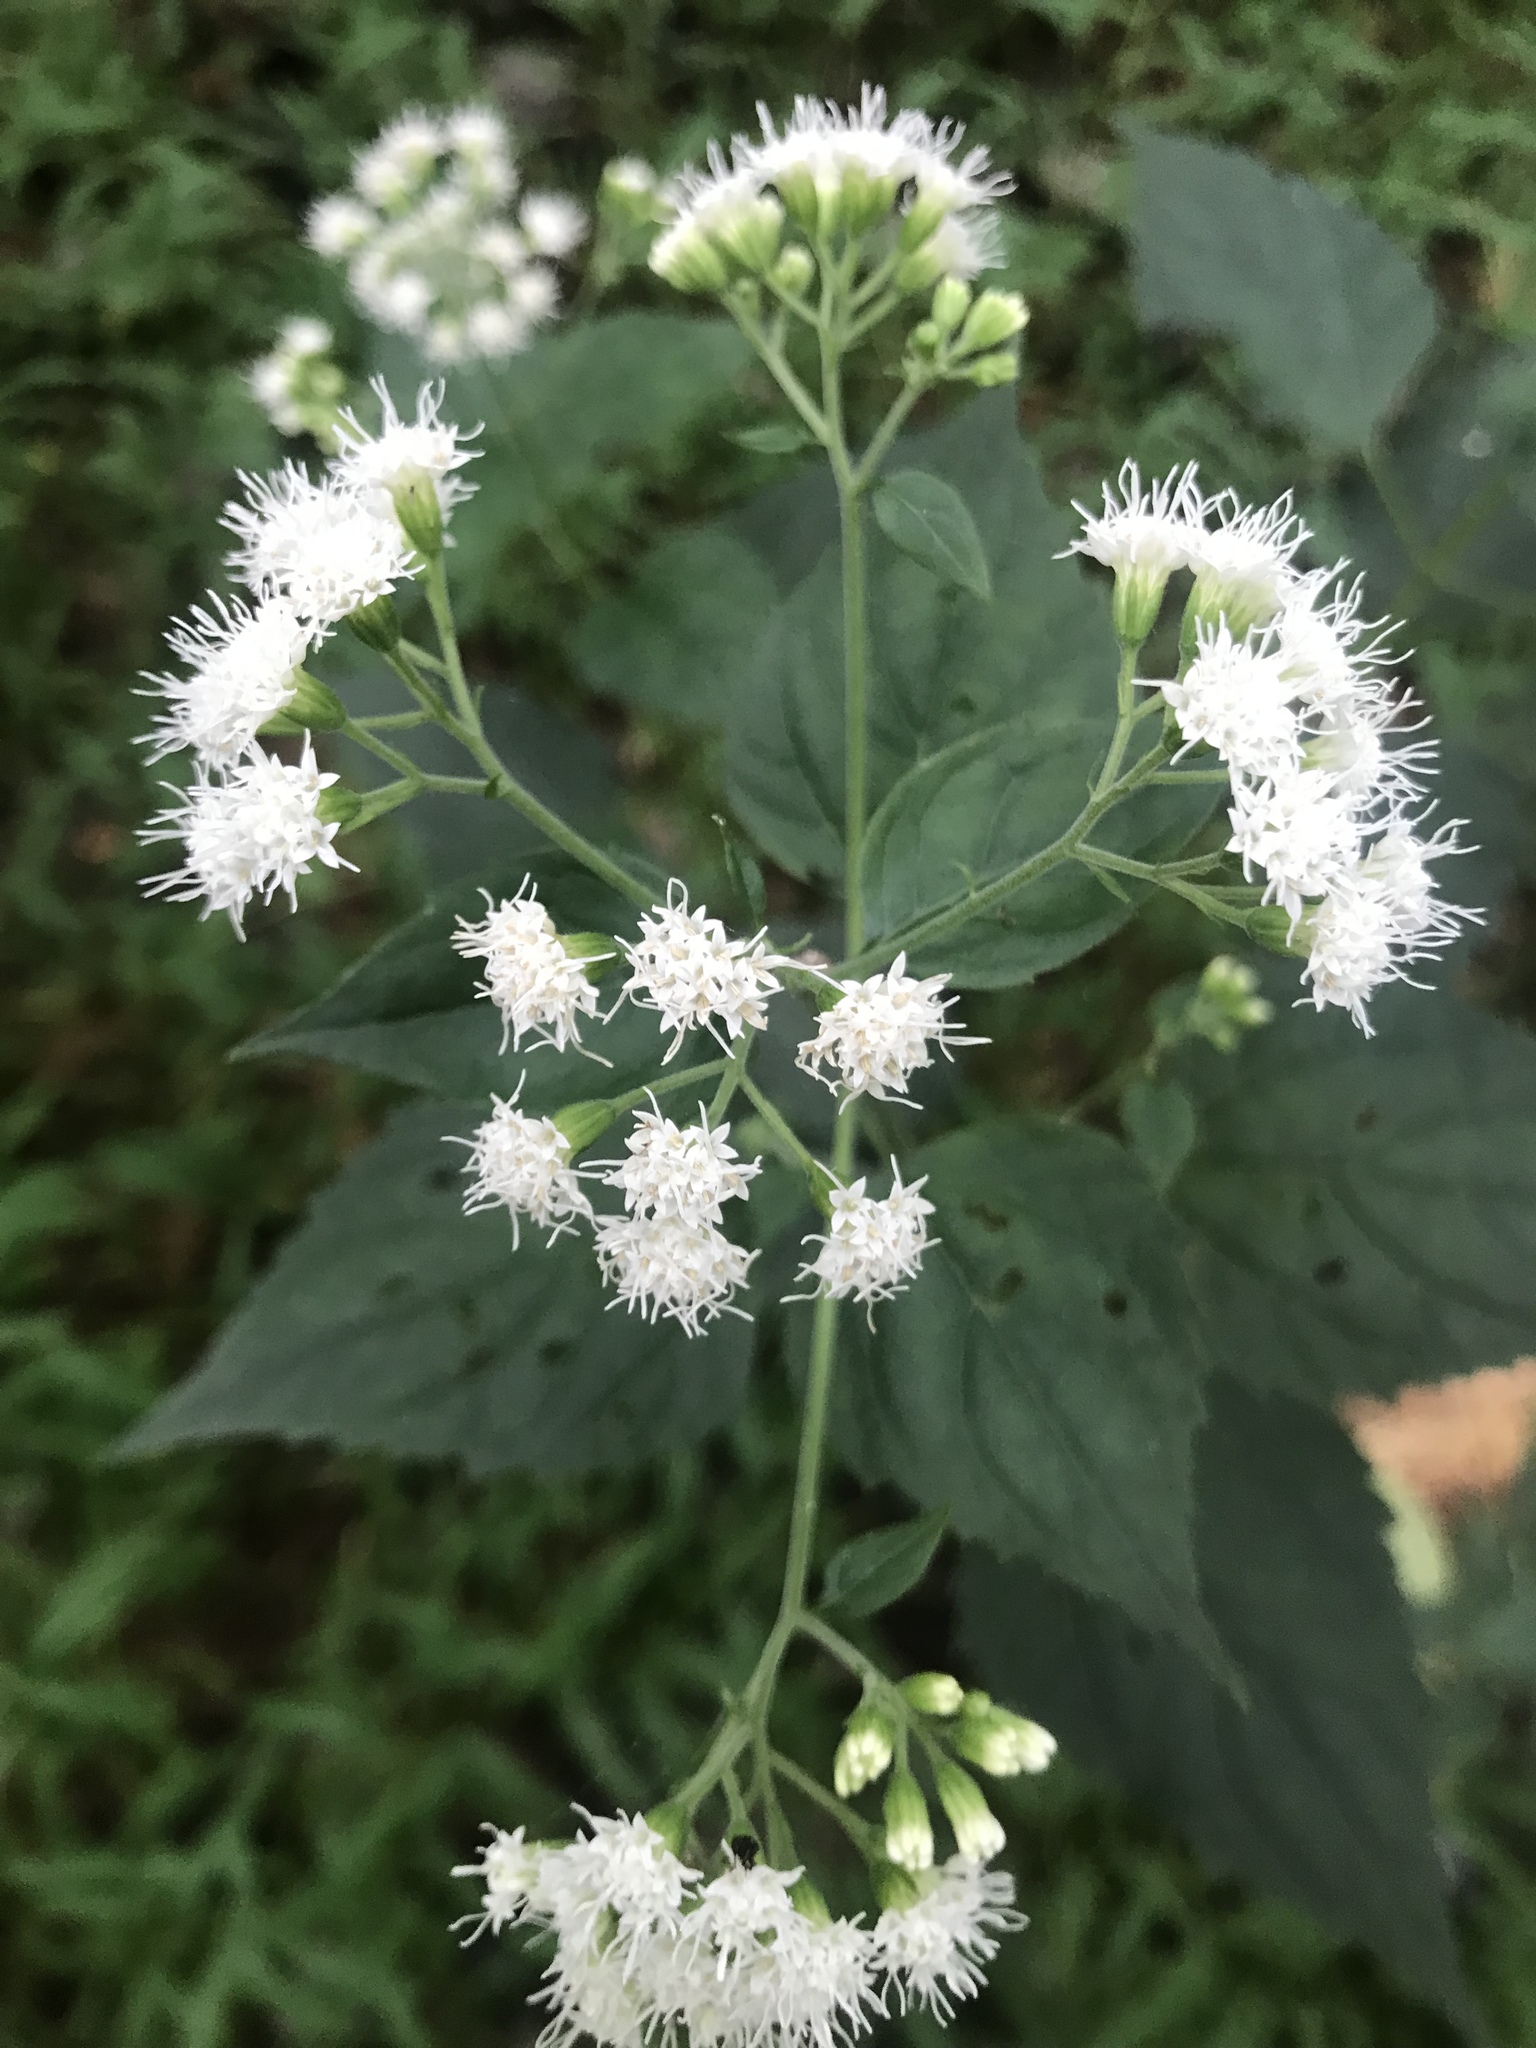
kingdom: Plantae
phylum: Tracheophyta
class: Magnoliopsida
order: Asterales
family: Asteraceae
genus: Ageratina
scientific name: Ageratina altissima
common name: White snakeroot
